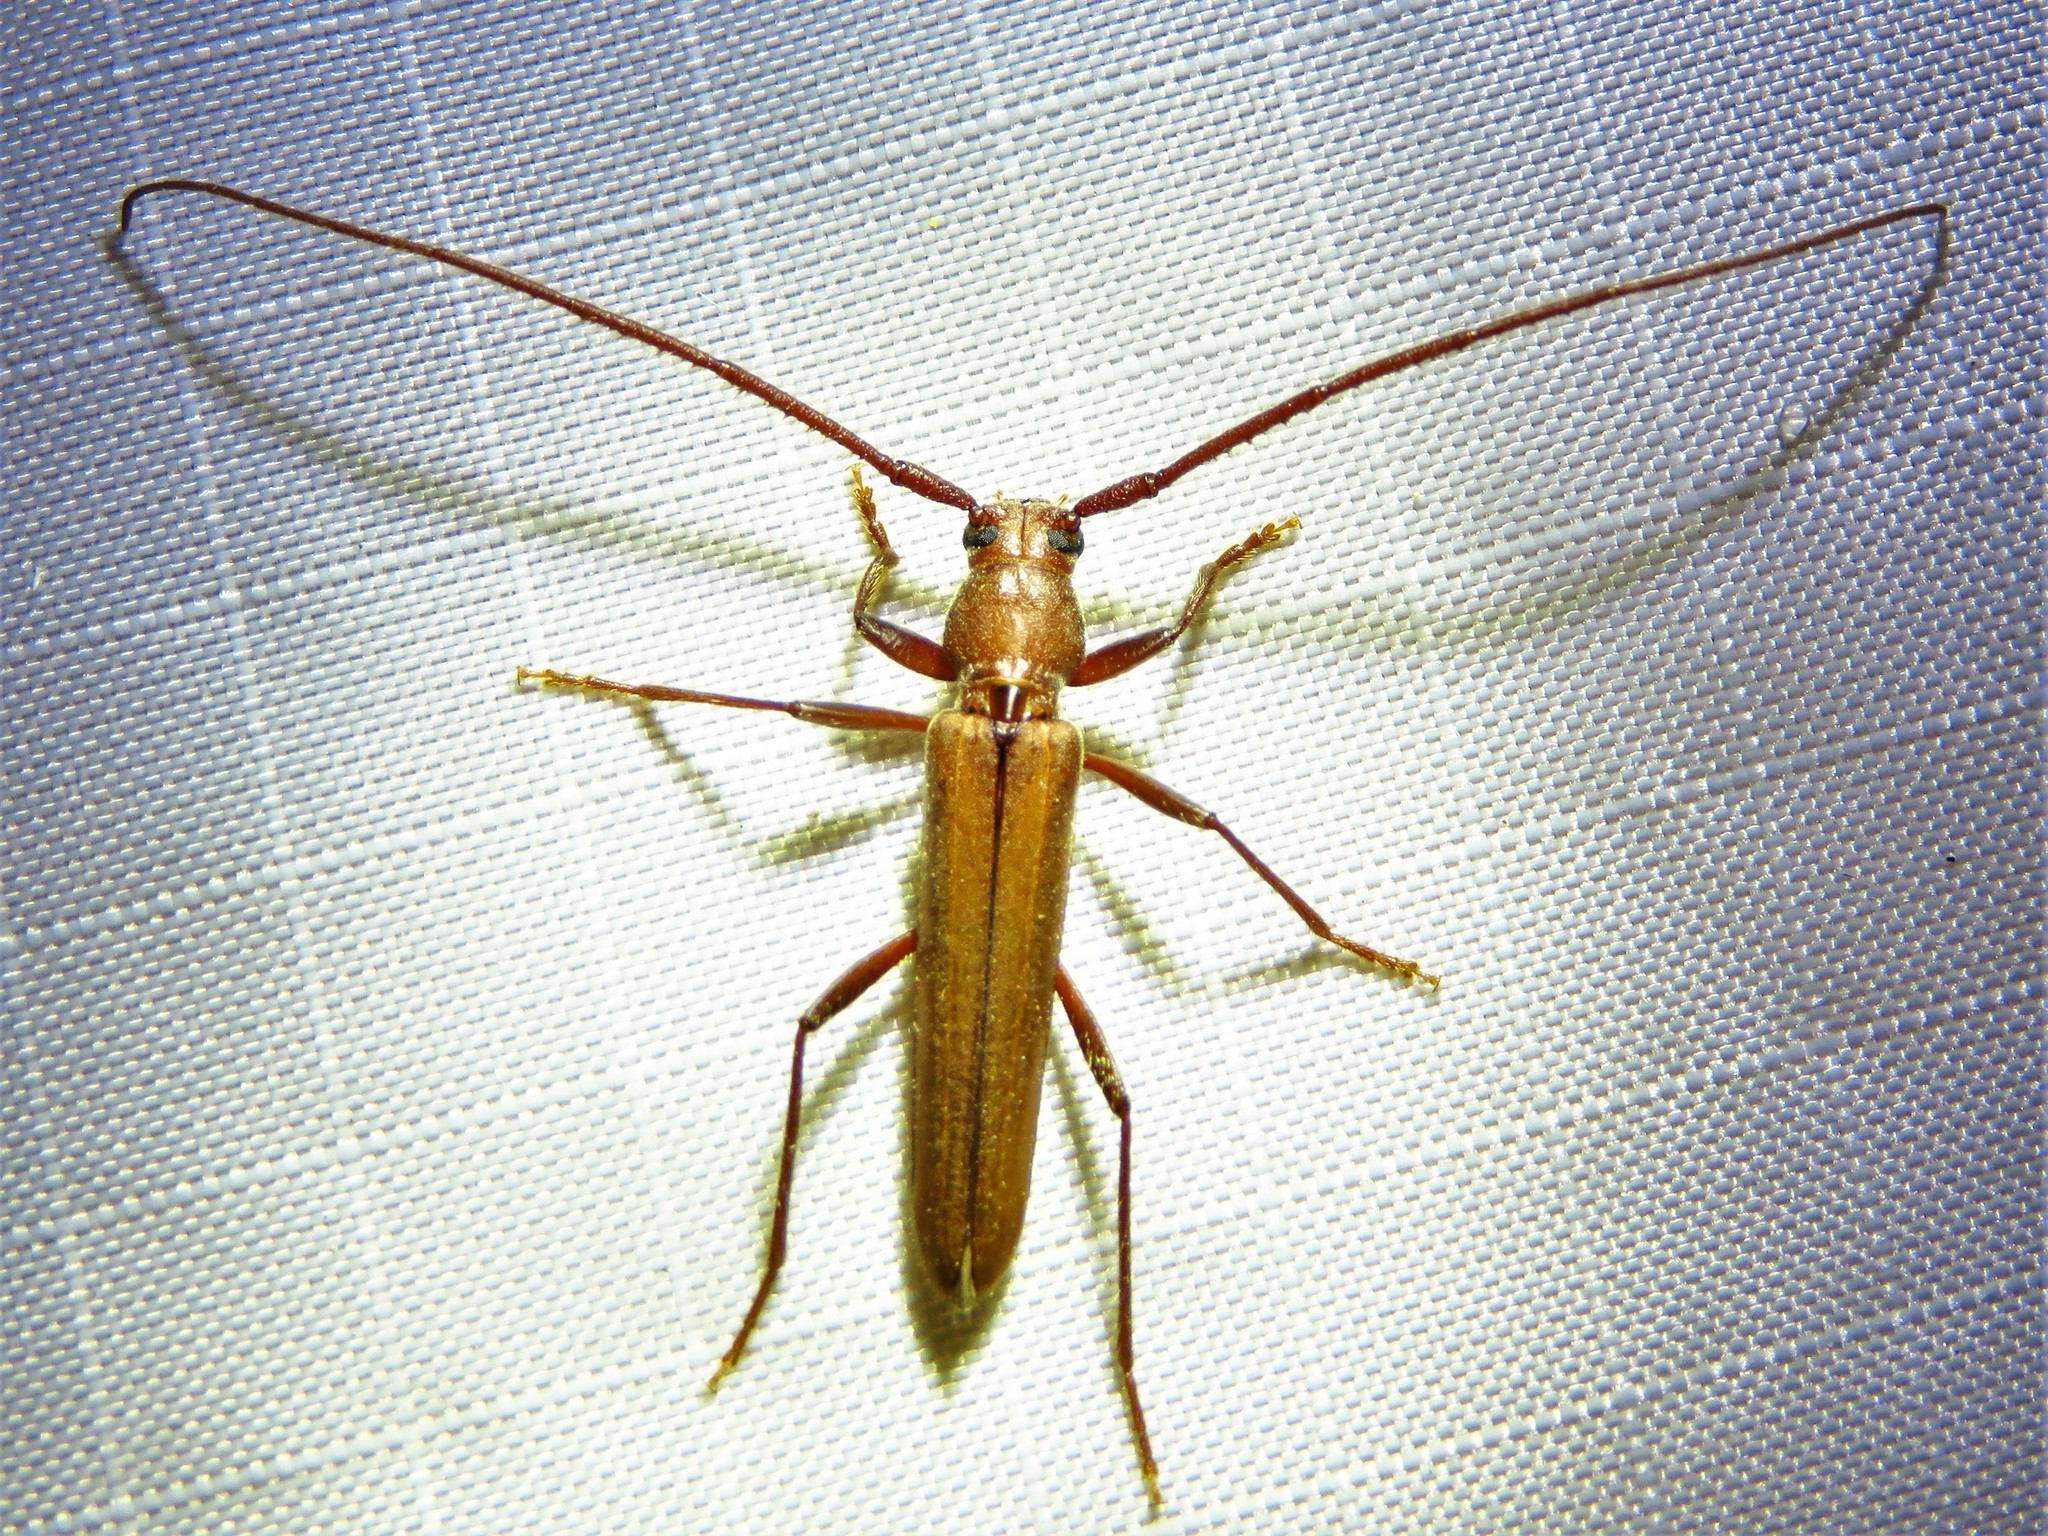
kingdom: Animalia
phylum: Arthropoda
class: Insecta
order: Coleoptera
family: Cerambycidae
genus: Oeme
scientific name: Oeme rigida
